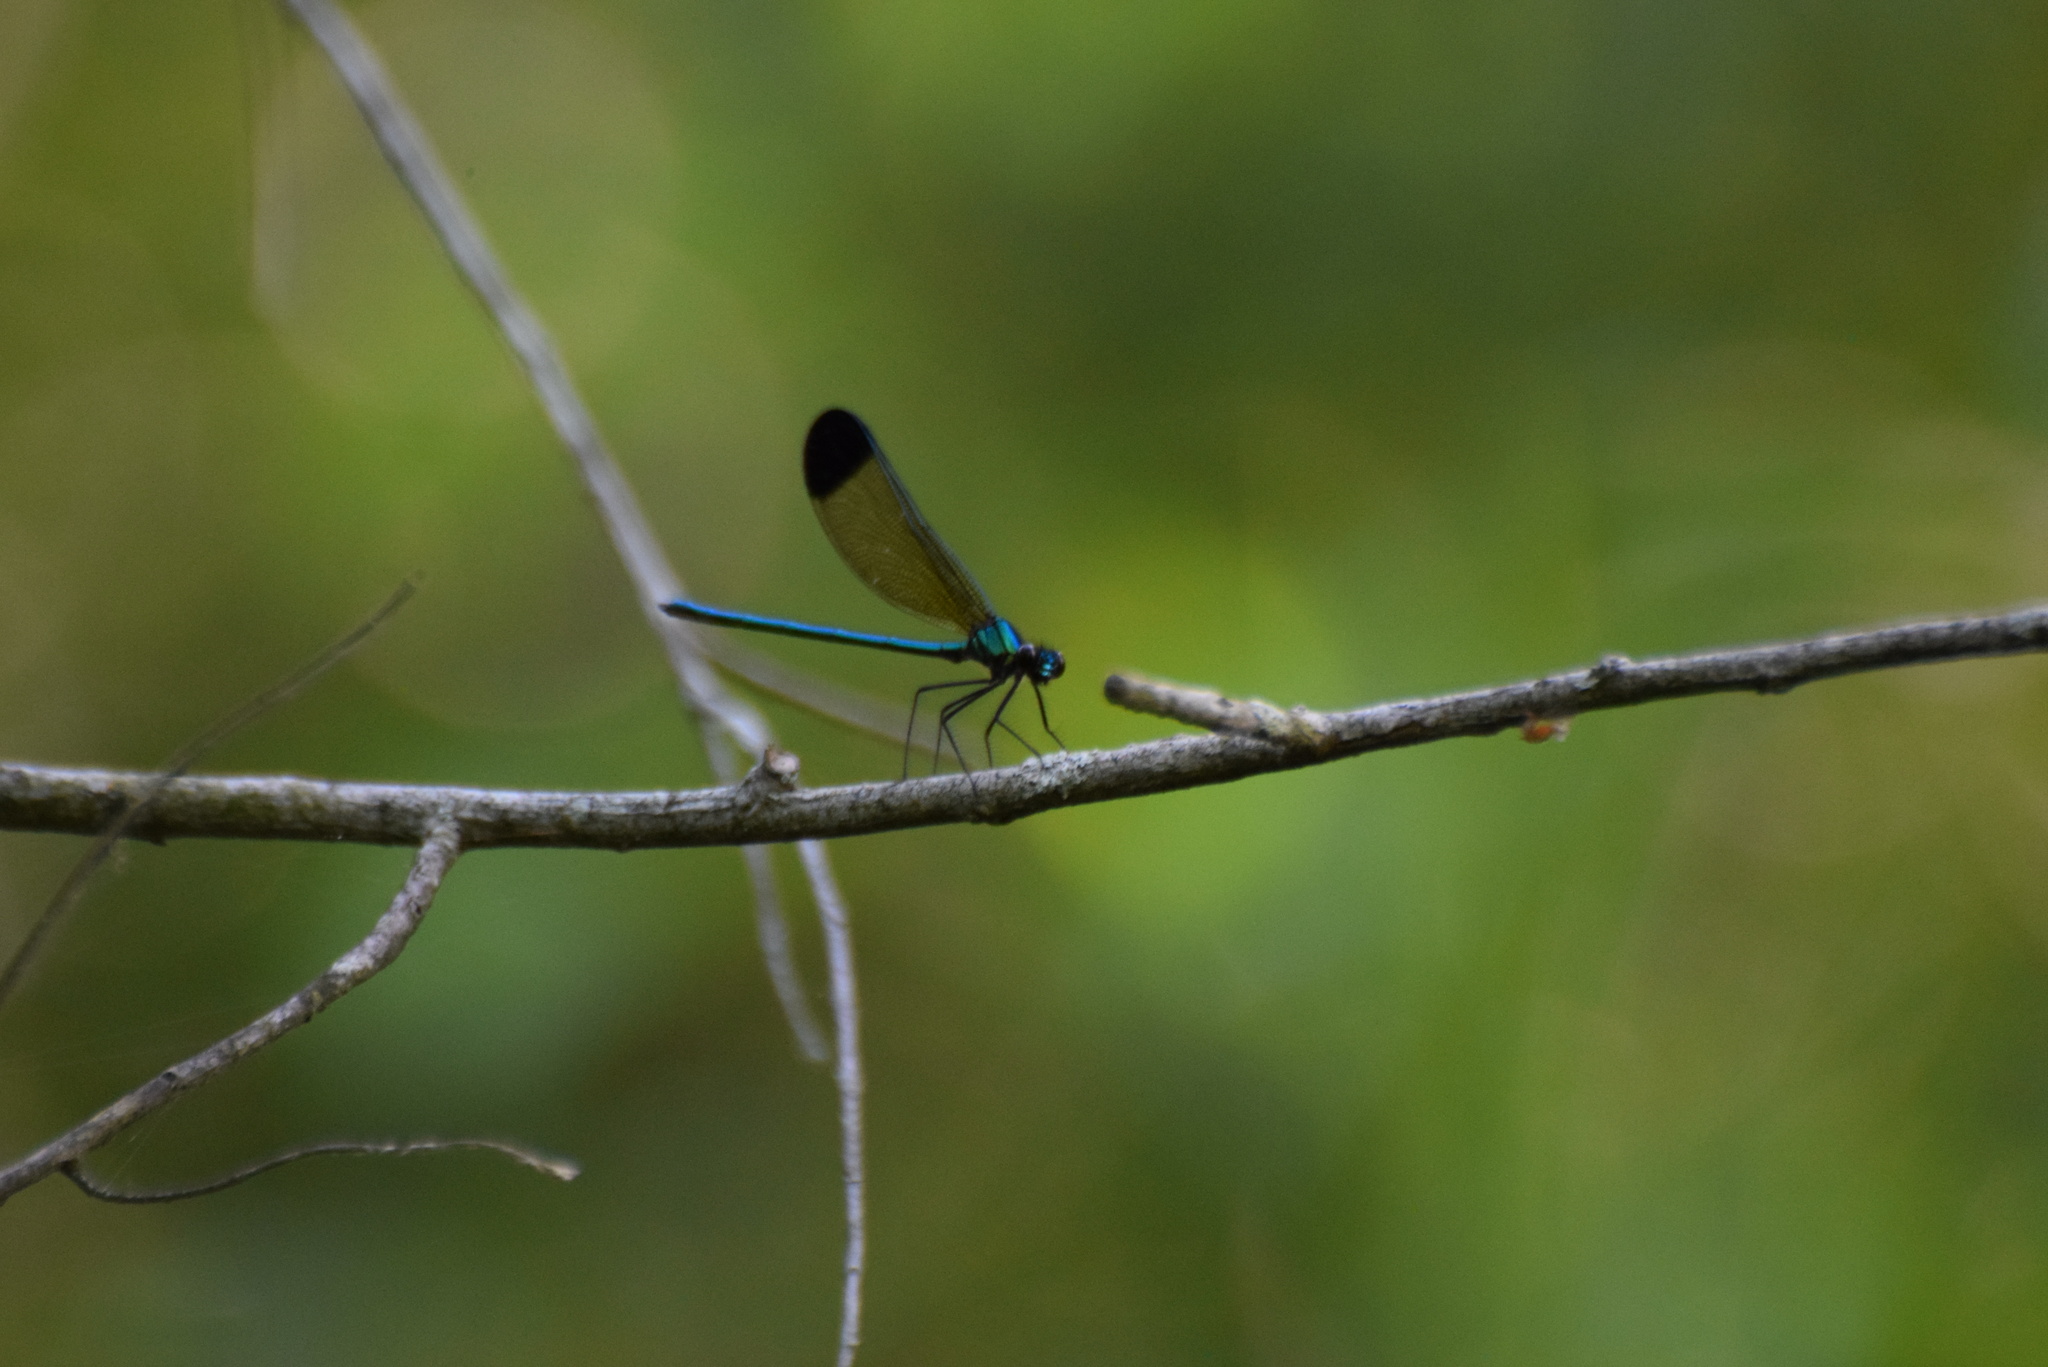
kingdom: Animalia
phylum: Arthropoda
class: Insecta
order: Odonata
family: Calopterygidae
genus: Calopteryx
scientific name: Calopteryx dimidiata
